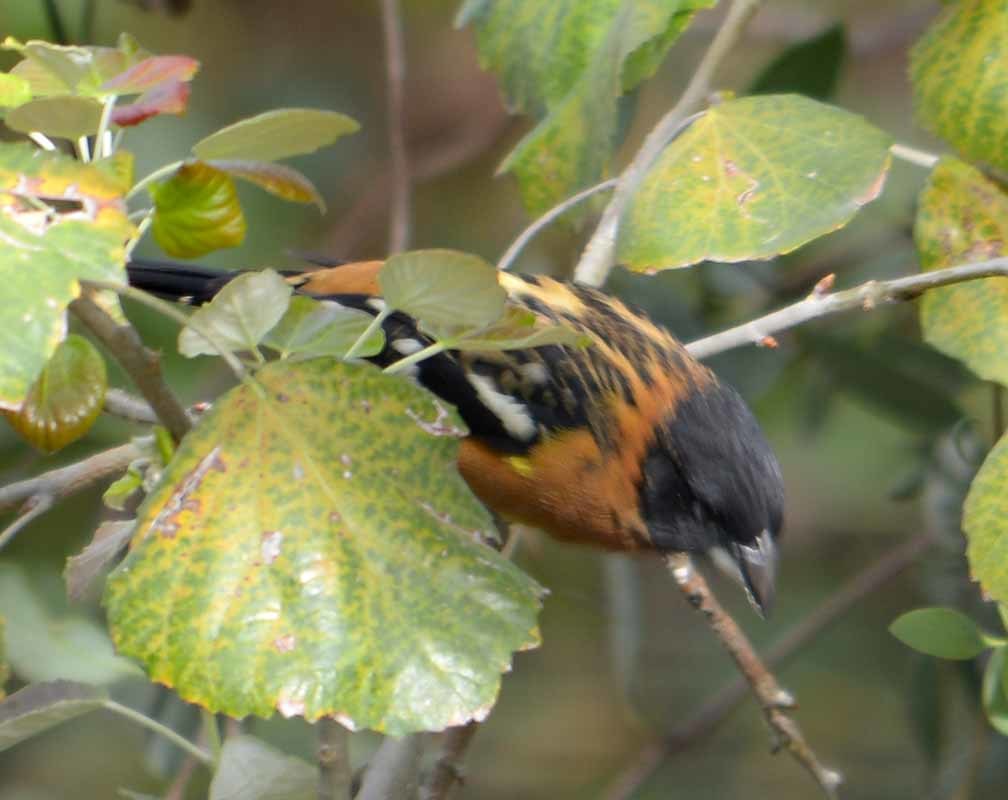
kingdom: Animalia
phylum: Chordata
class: Aves
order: Passeriformes
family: Cardinalidae
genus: Pheucticus
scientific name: Pheucticus melanocephalus
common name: Black-headed grosbeak
